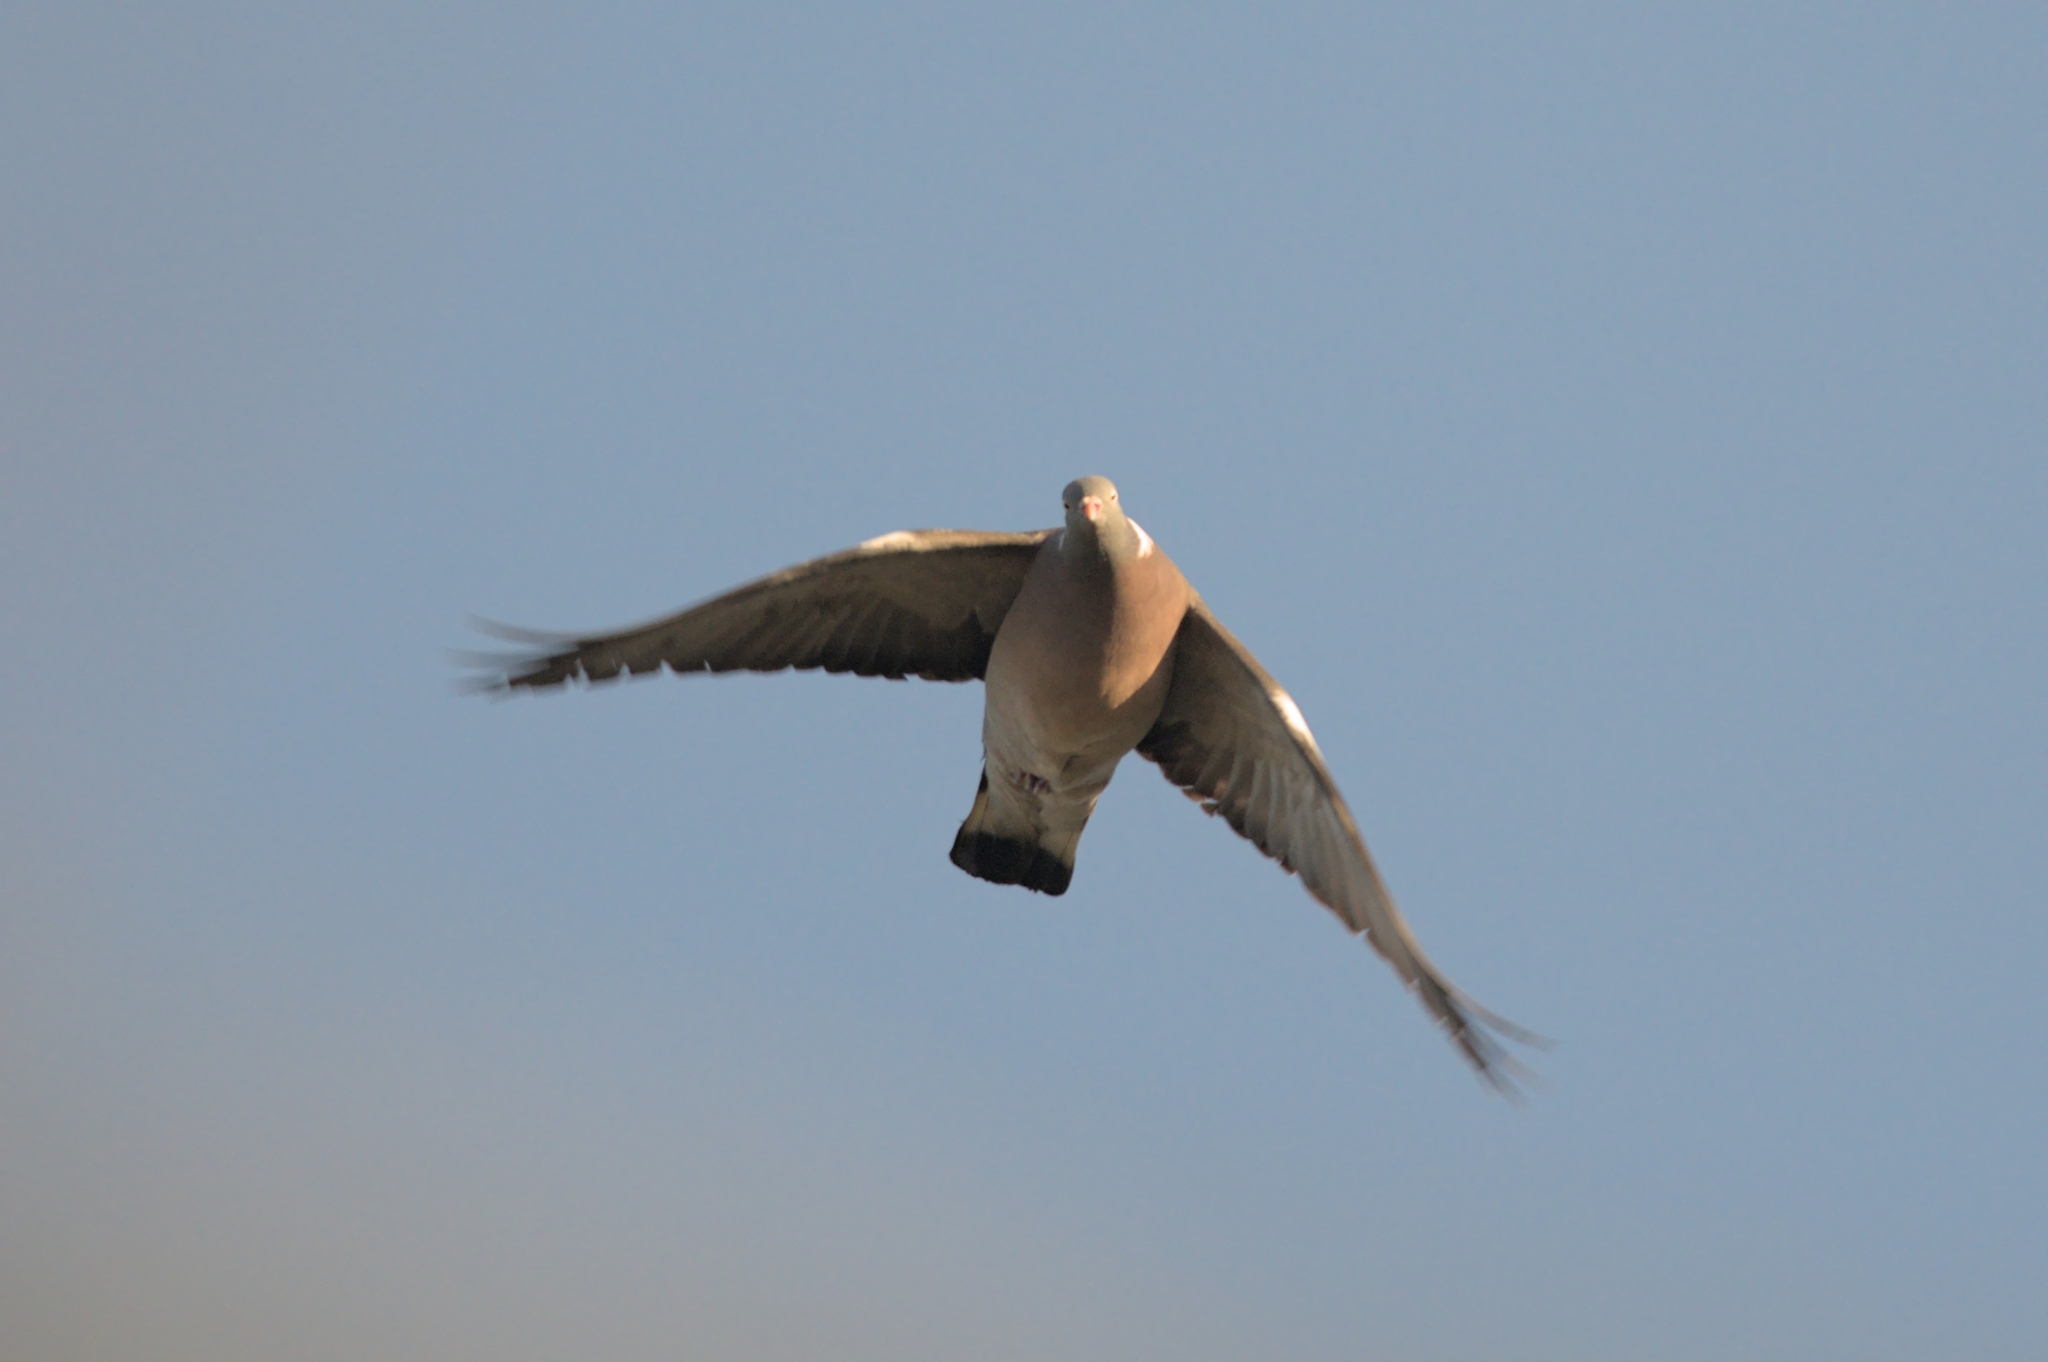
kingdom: Animalia
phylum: Chordata
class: Aves
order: Columbiformes
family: Columbidae
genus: Columba
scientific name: Columba palumbus
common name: Common wood pigeon
